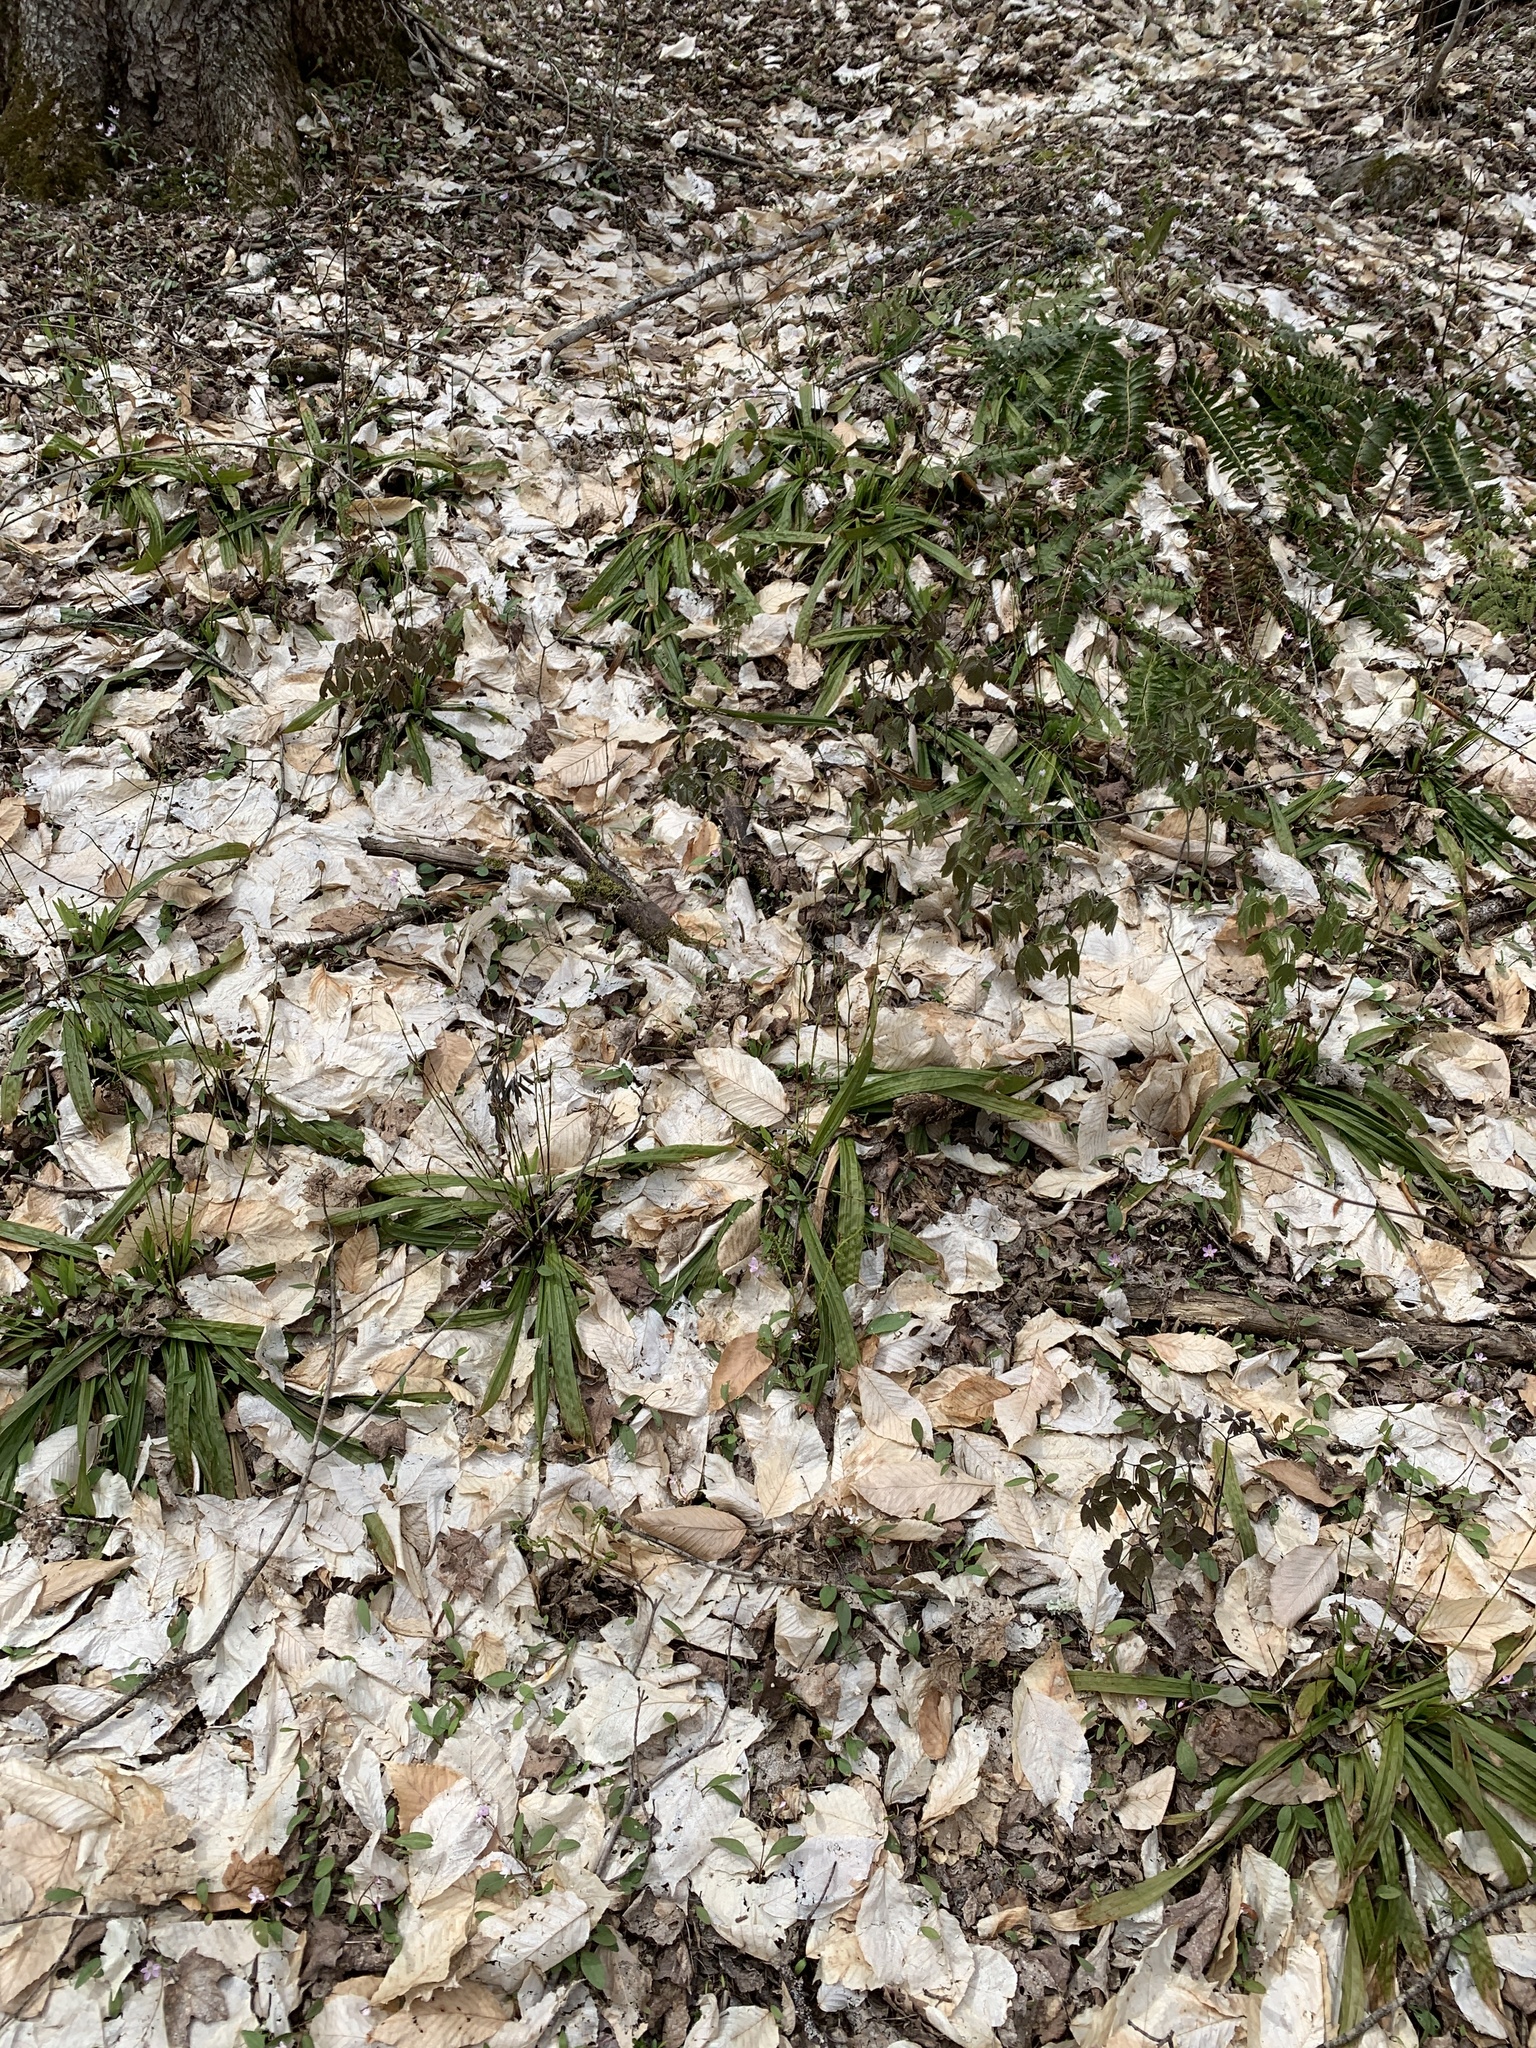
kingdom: Plantae
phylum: Tracheophyta
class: Liliopsida
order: Poales
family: Cyperaceae
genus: Carex
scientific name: Carex plantaginea
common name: Plantain-leaved sedge
